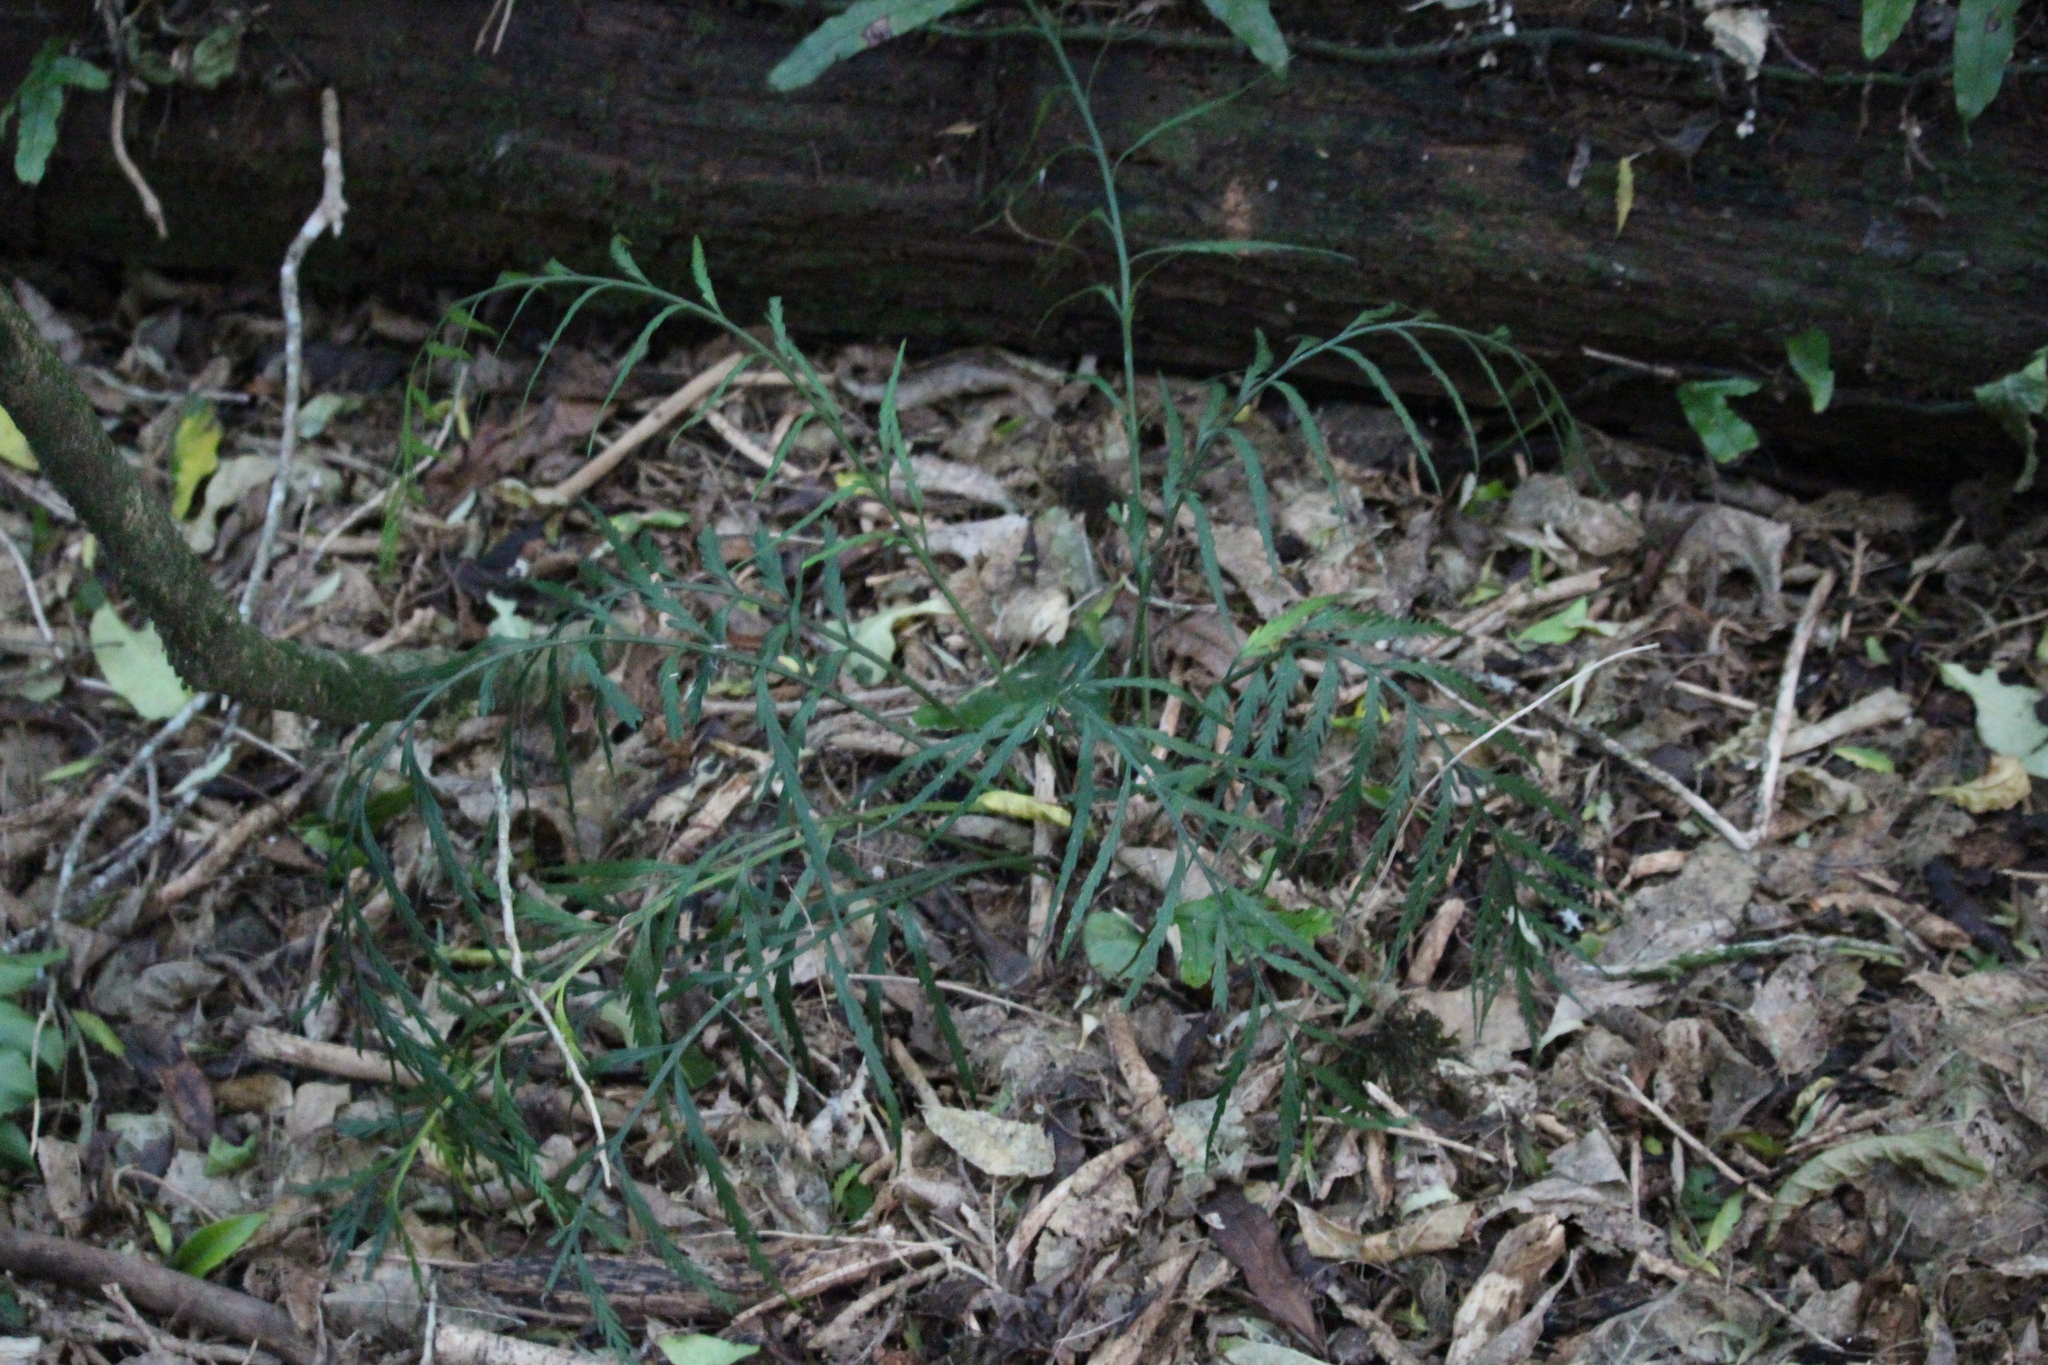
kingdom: Plantae
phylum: Tracheophyta
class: Polypodiopsida
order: Polypodiales
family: Aspleniaceae
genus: Asplenium
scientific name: Asplenium flaccidum
